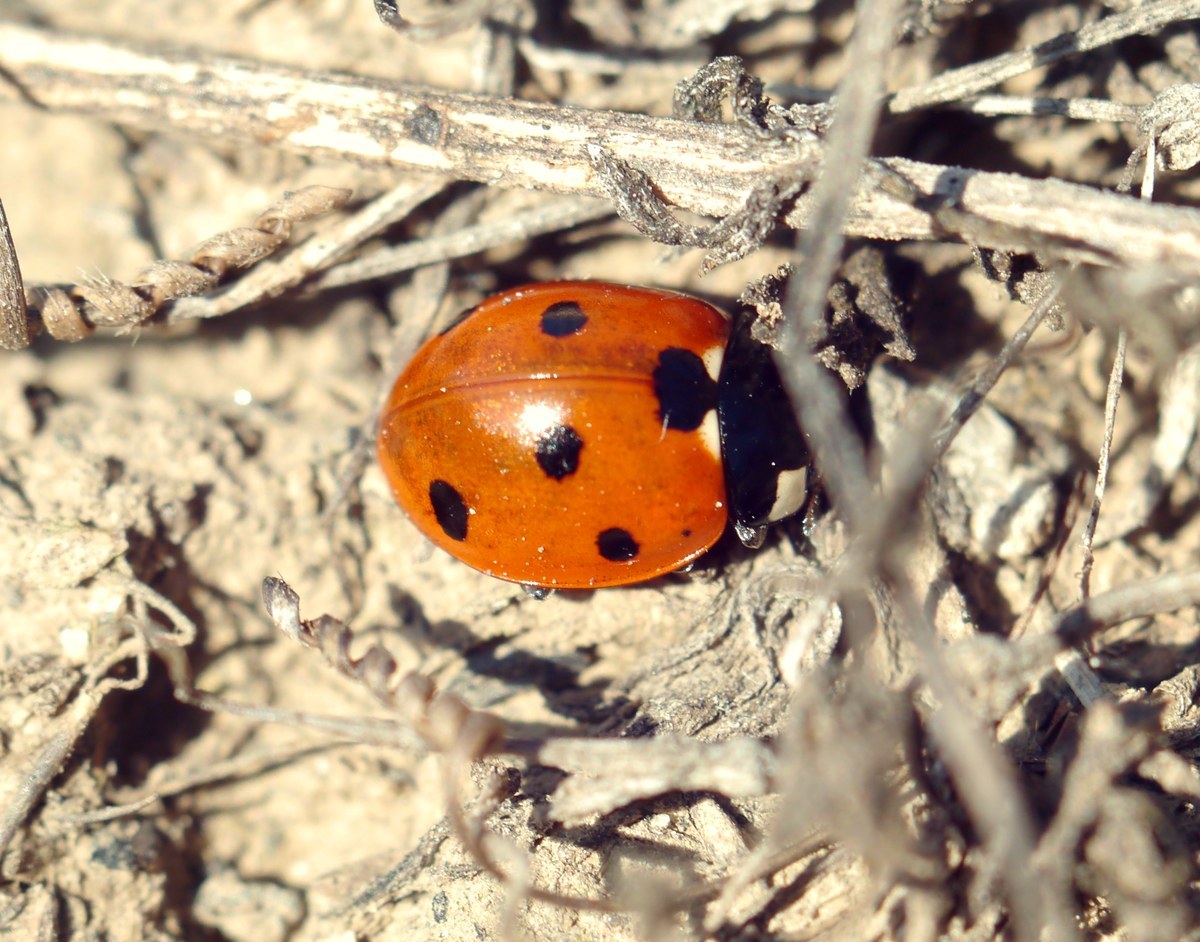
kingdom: Animalia
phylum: Arthropoda
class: Insecta
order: Coleoptera
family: Coccinellidae
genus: Coccinella
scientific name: Coccinella septempunctata
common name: Sevenspotted lady beetle
